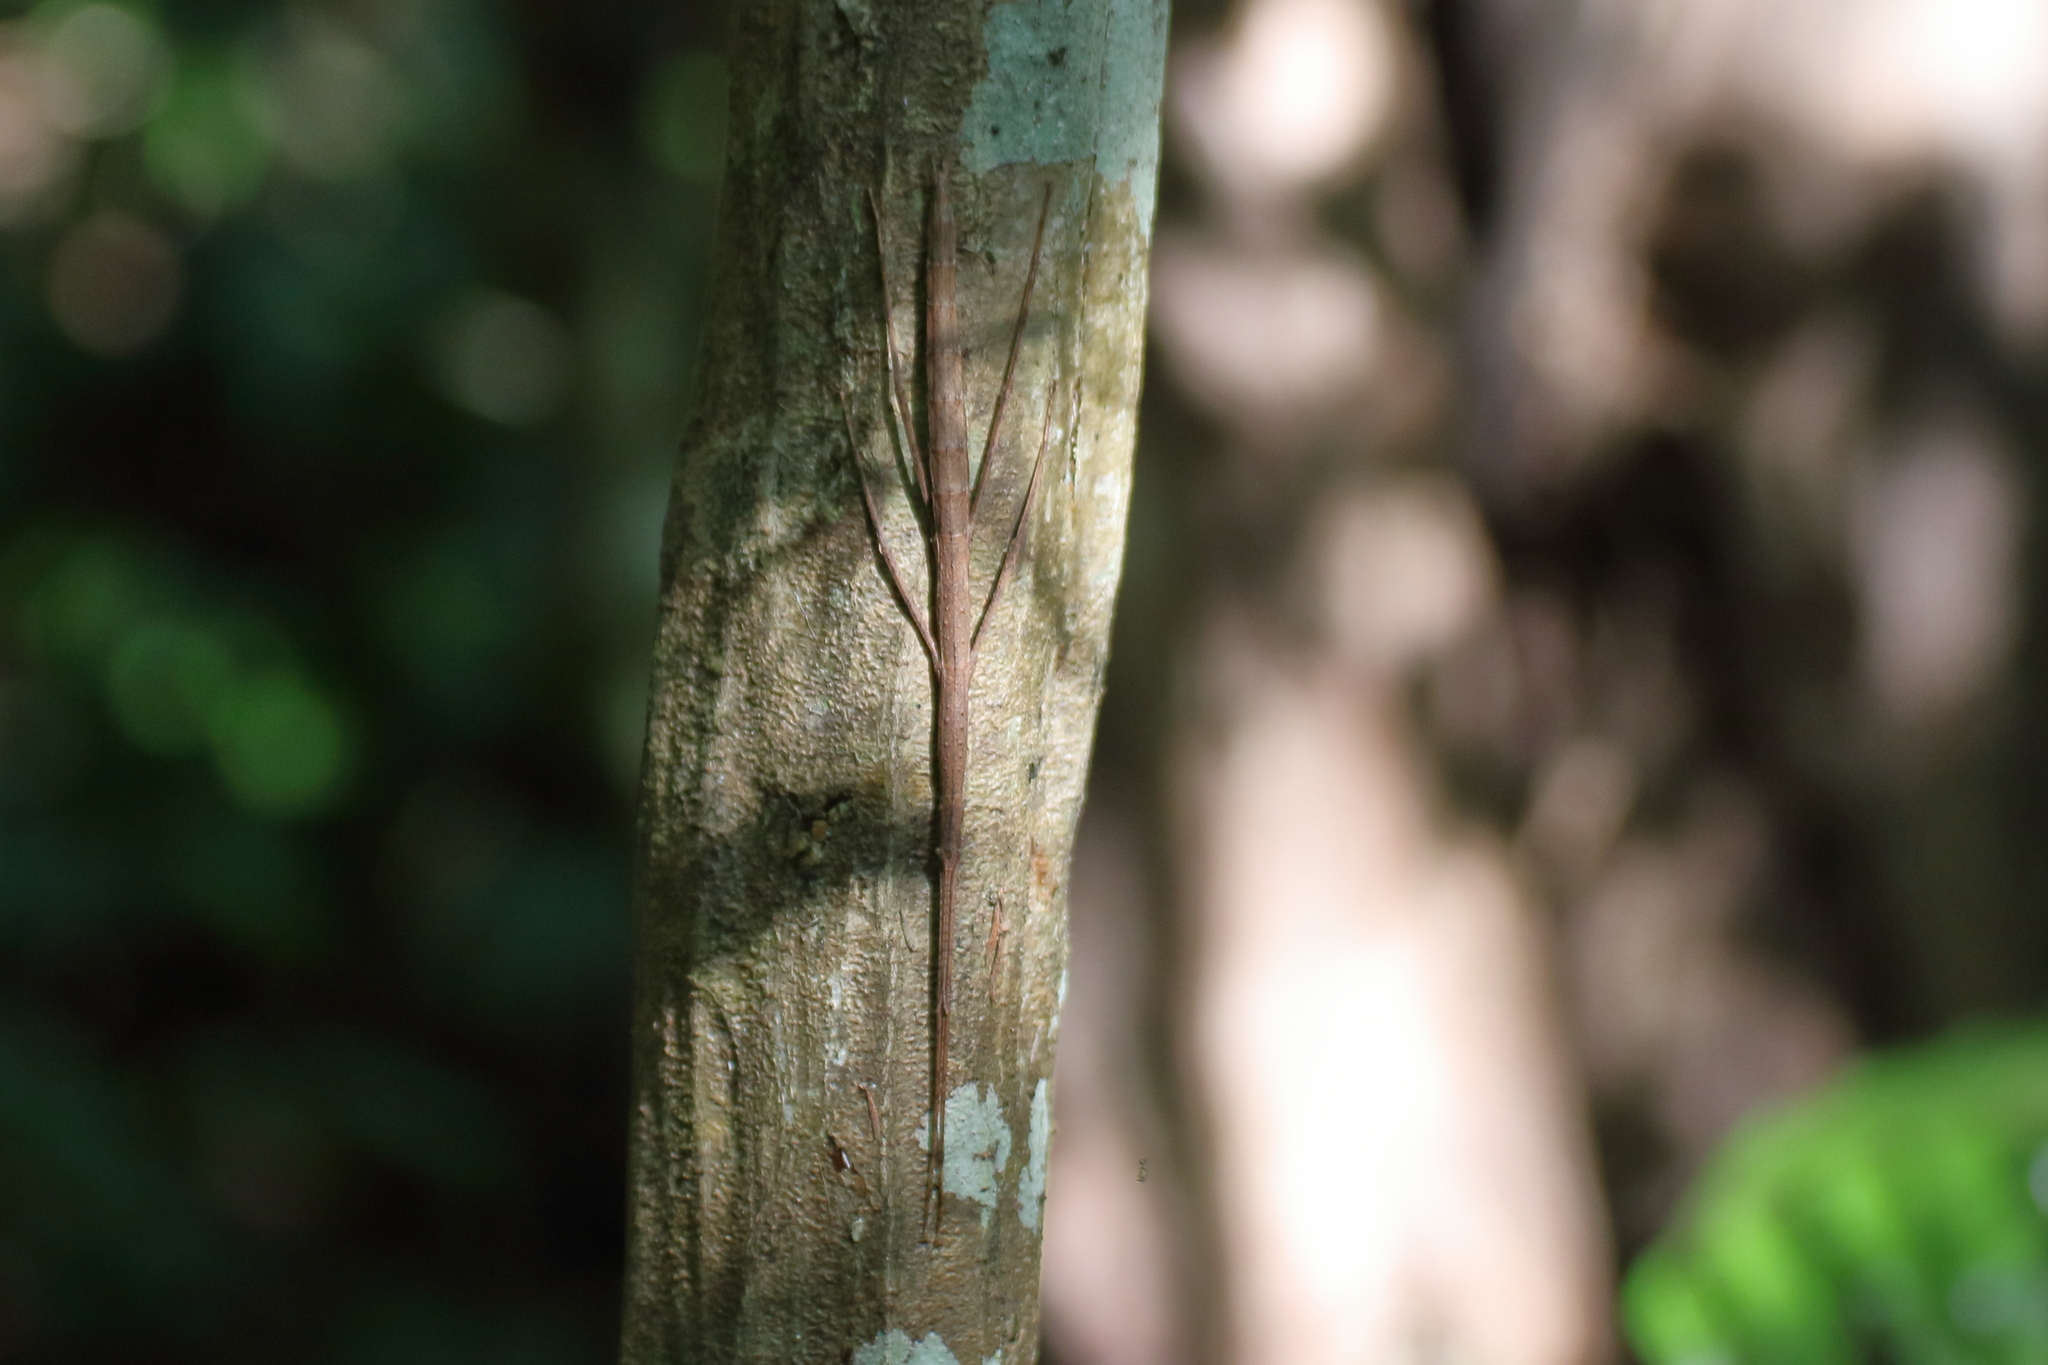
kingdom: Animalia
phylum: Arthropoda
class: Insecta
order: Phasmida
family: Phasmatidae
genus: Clitarchus
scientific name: Clitarchus hookeri
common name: Smooth stick insect
